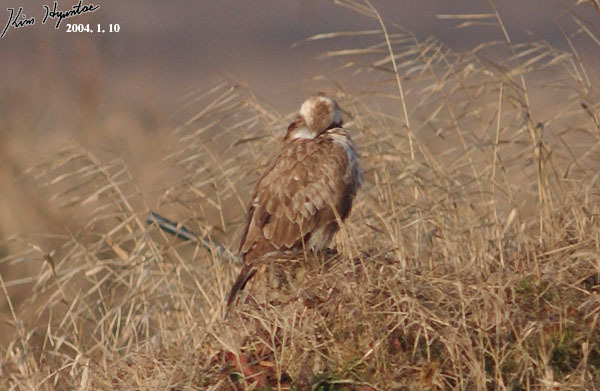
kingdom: Animalia
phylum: Chordata
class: Aves
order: Accipitriformes
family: Accipitridae
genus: Buteo
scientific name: Buteo hemilasius
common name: Upland buzzard
